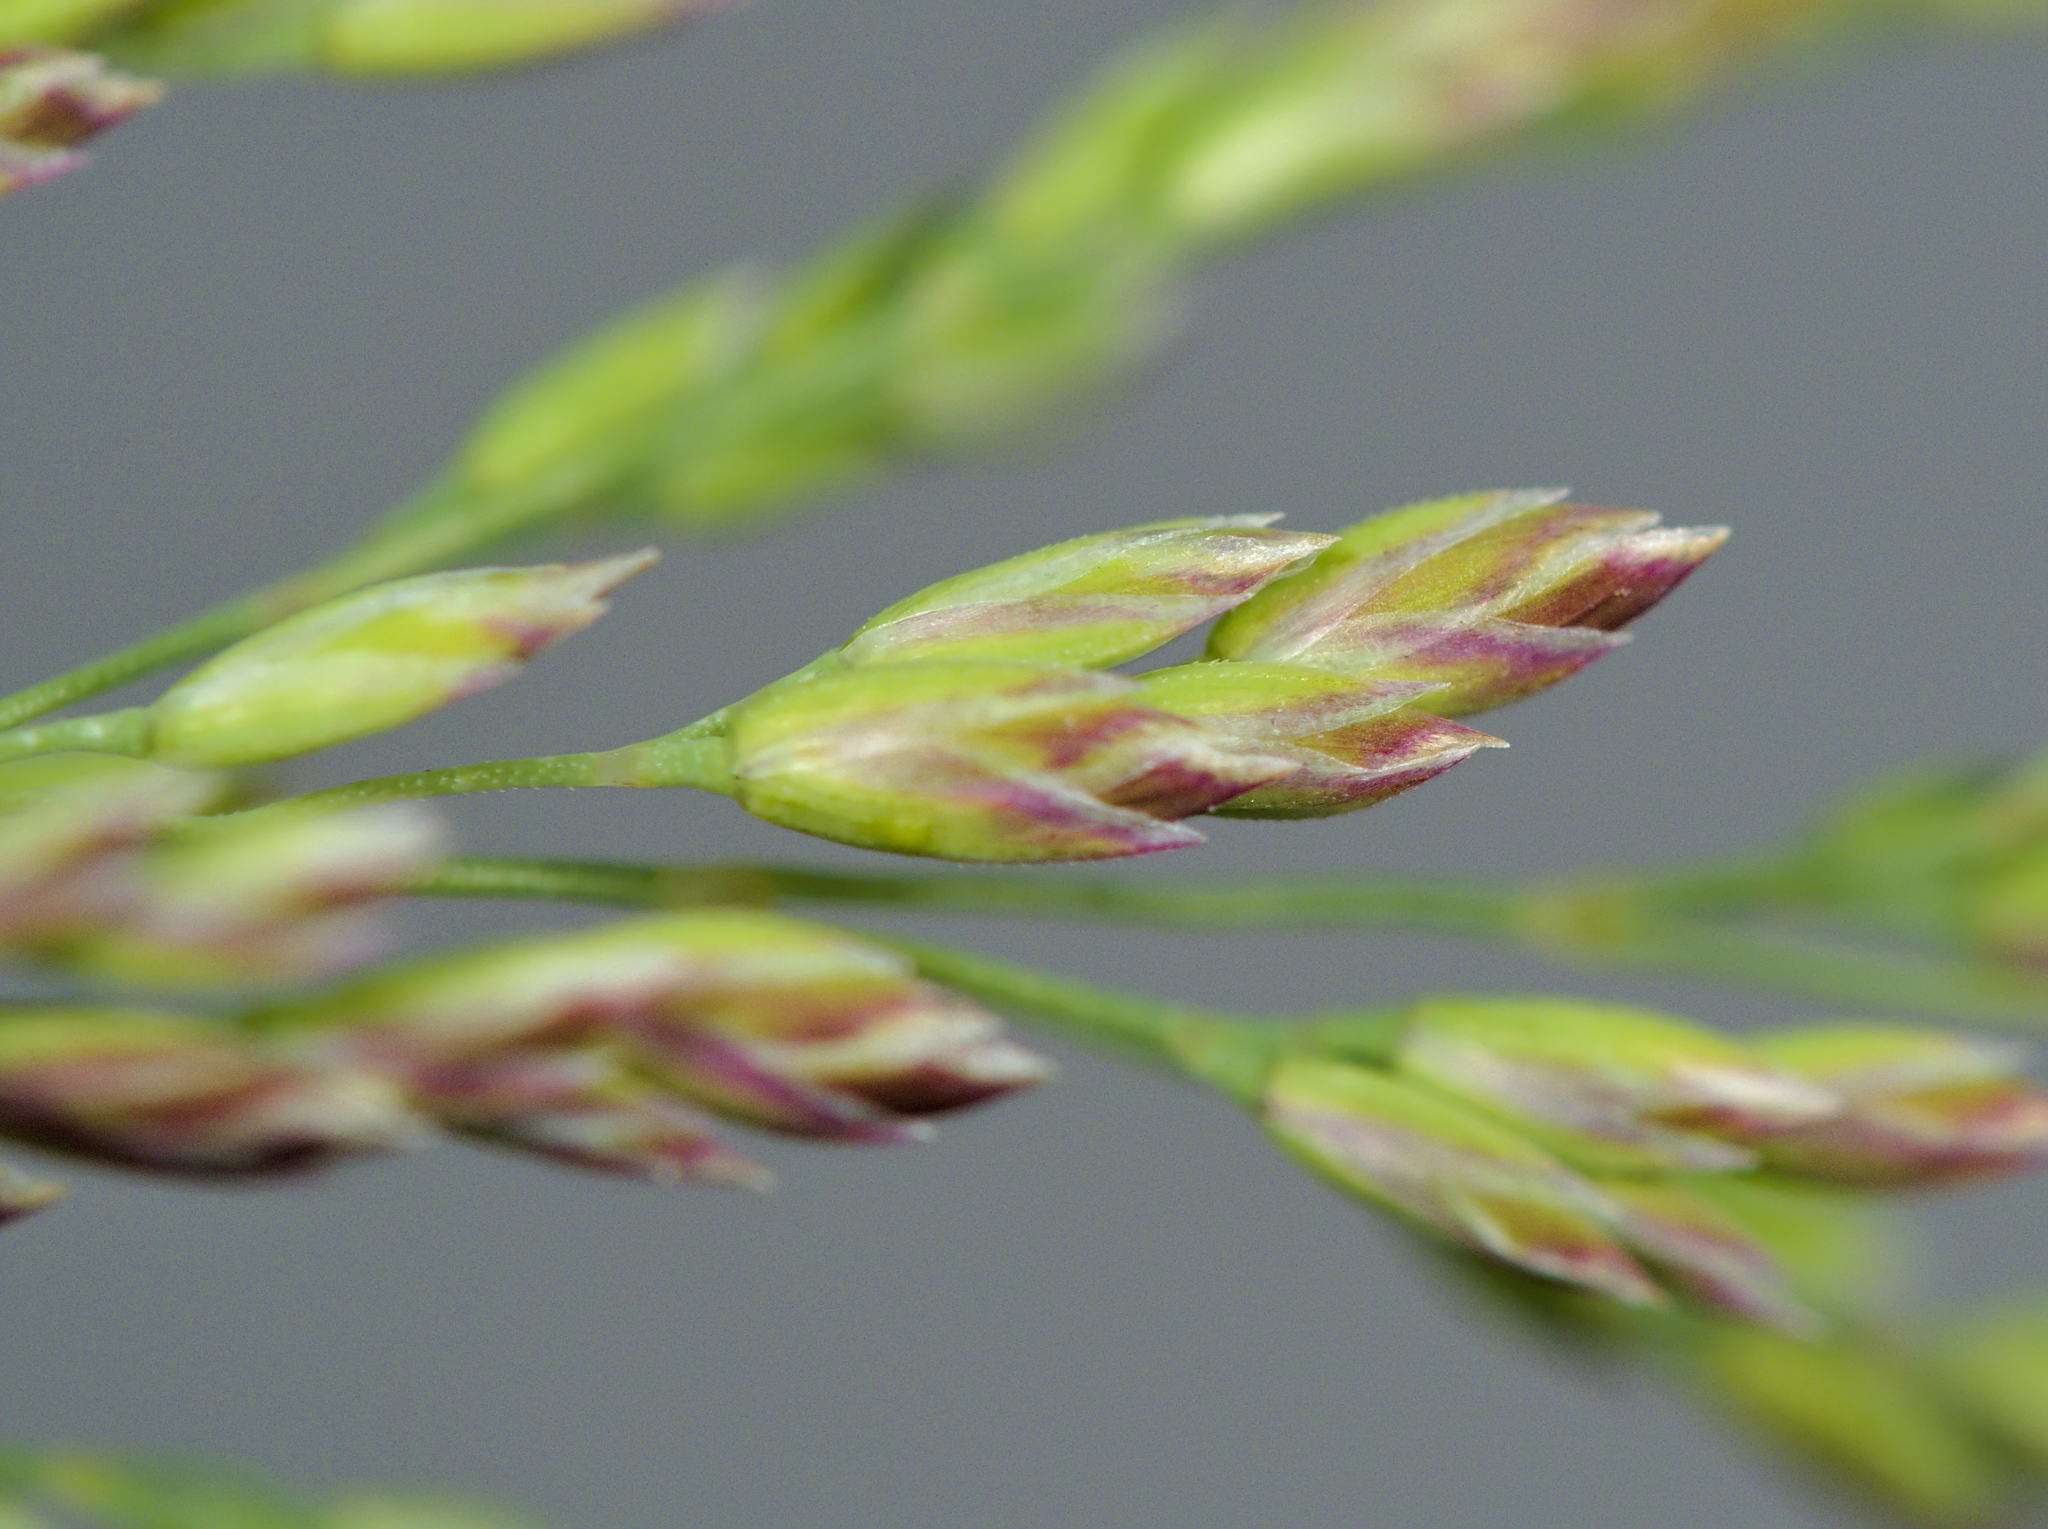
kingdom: Plantae
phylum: Tracheophyta
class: Liliopsida
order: Poales
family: Poaceae
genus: Poa
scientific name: Poa pratensis
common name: Kentucky bluegrass
